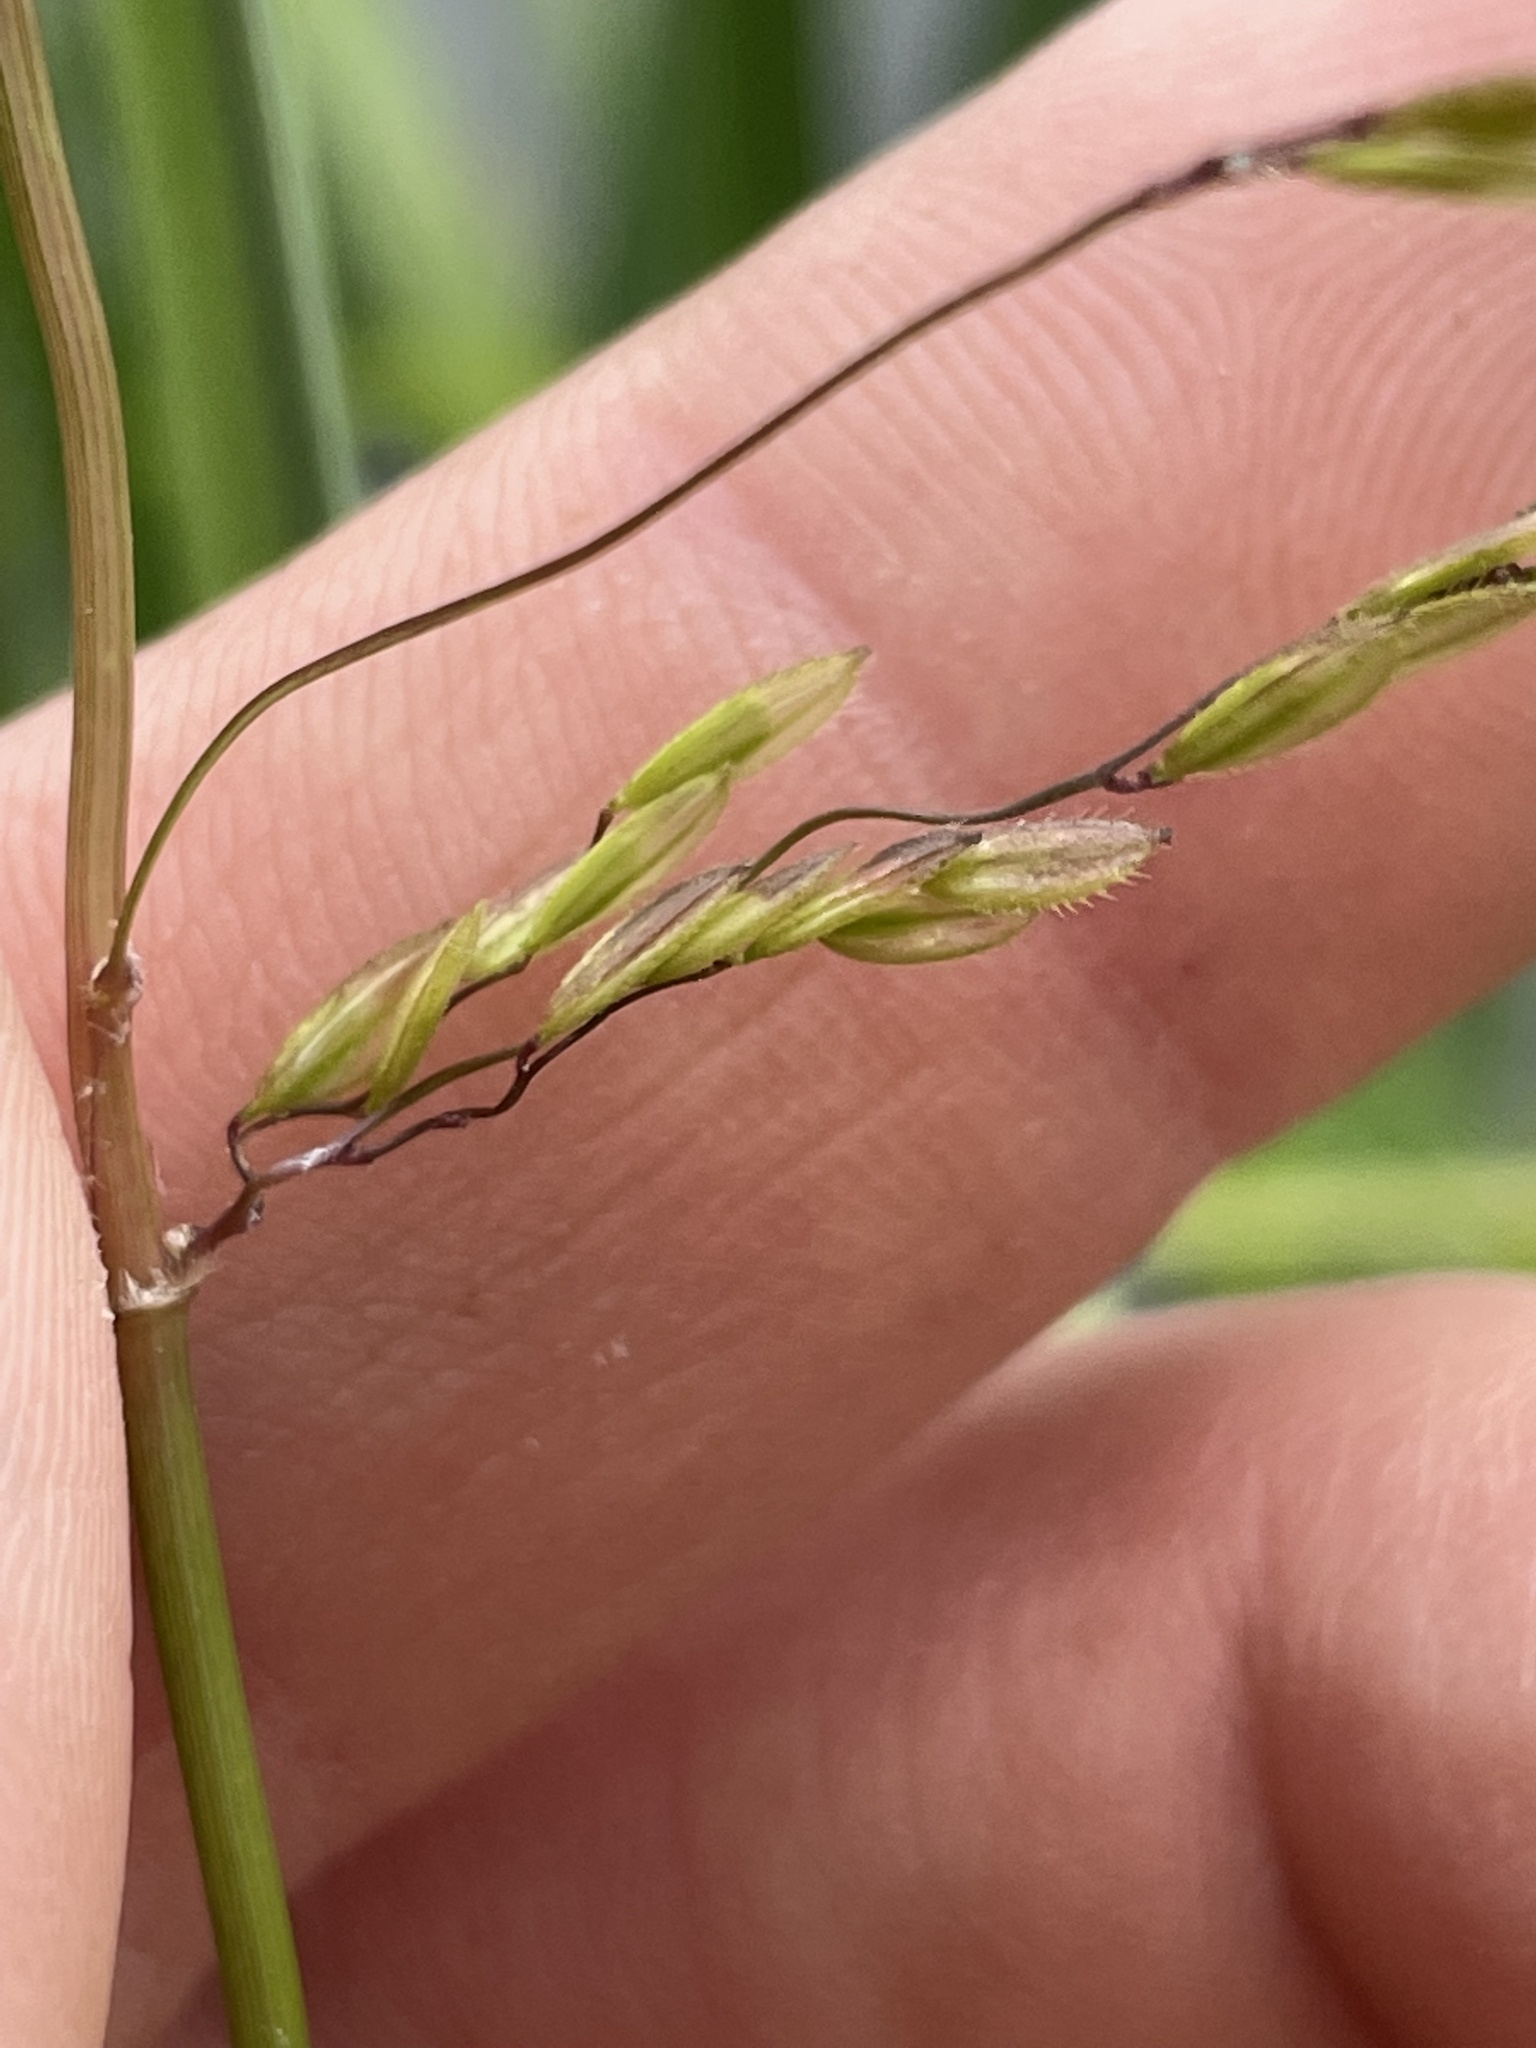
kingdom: Plantae
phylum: Tracheophyta
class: Liliopsida
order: Poales
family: Poaceae
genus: Leersia
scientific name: Leersia oryzoides
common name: Cut-grass
